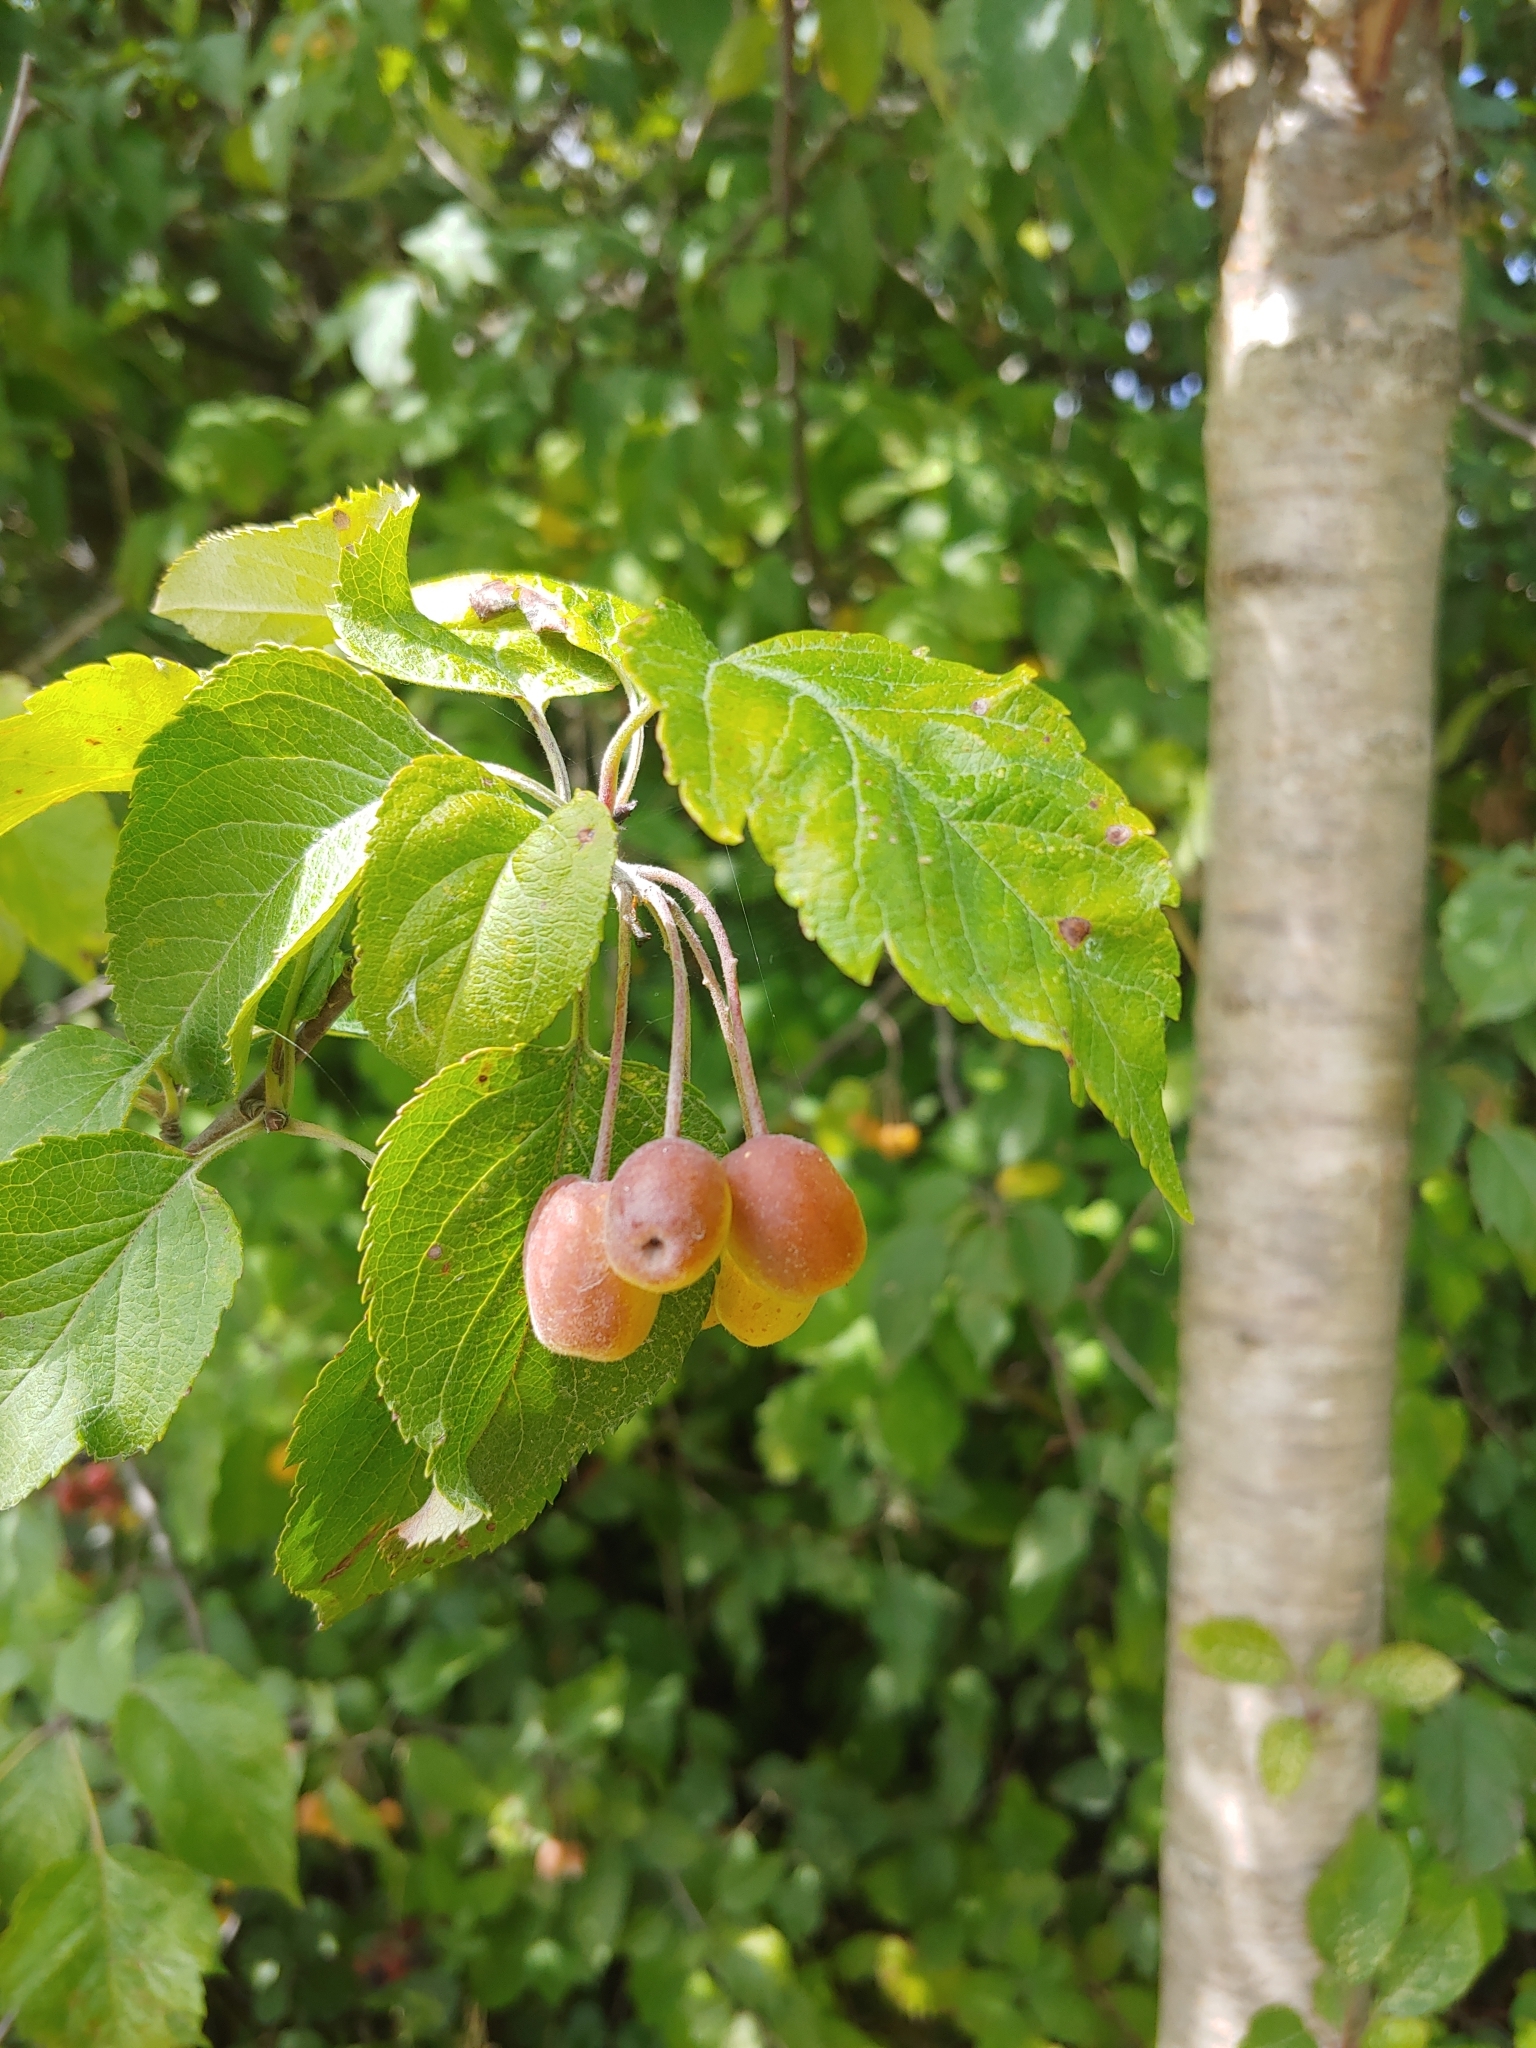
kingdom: Plantae
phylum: Tracheophyta
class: Magnoliopsida
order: Rosales
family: Rosaceae
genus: Malus
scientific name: Malus fusca
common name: Oregon crab apple
